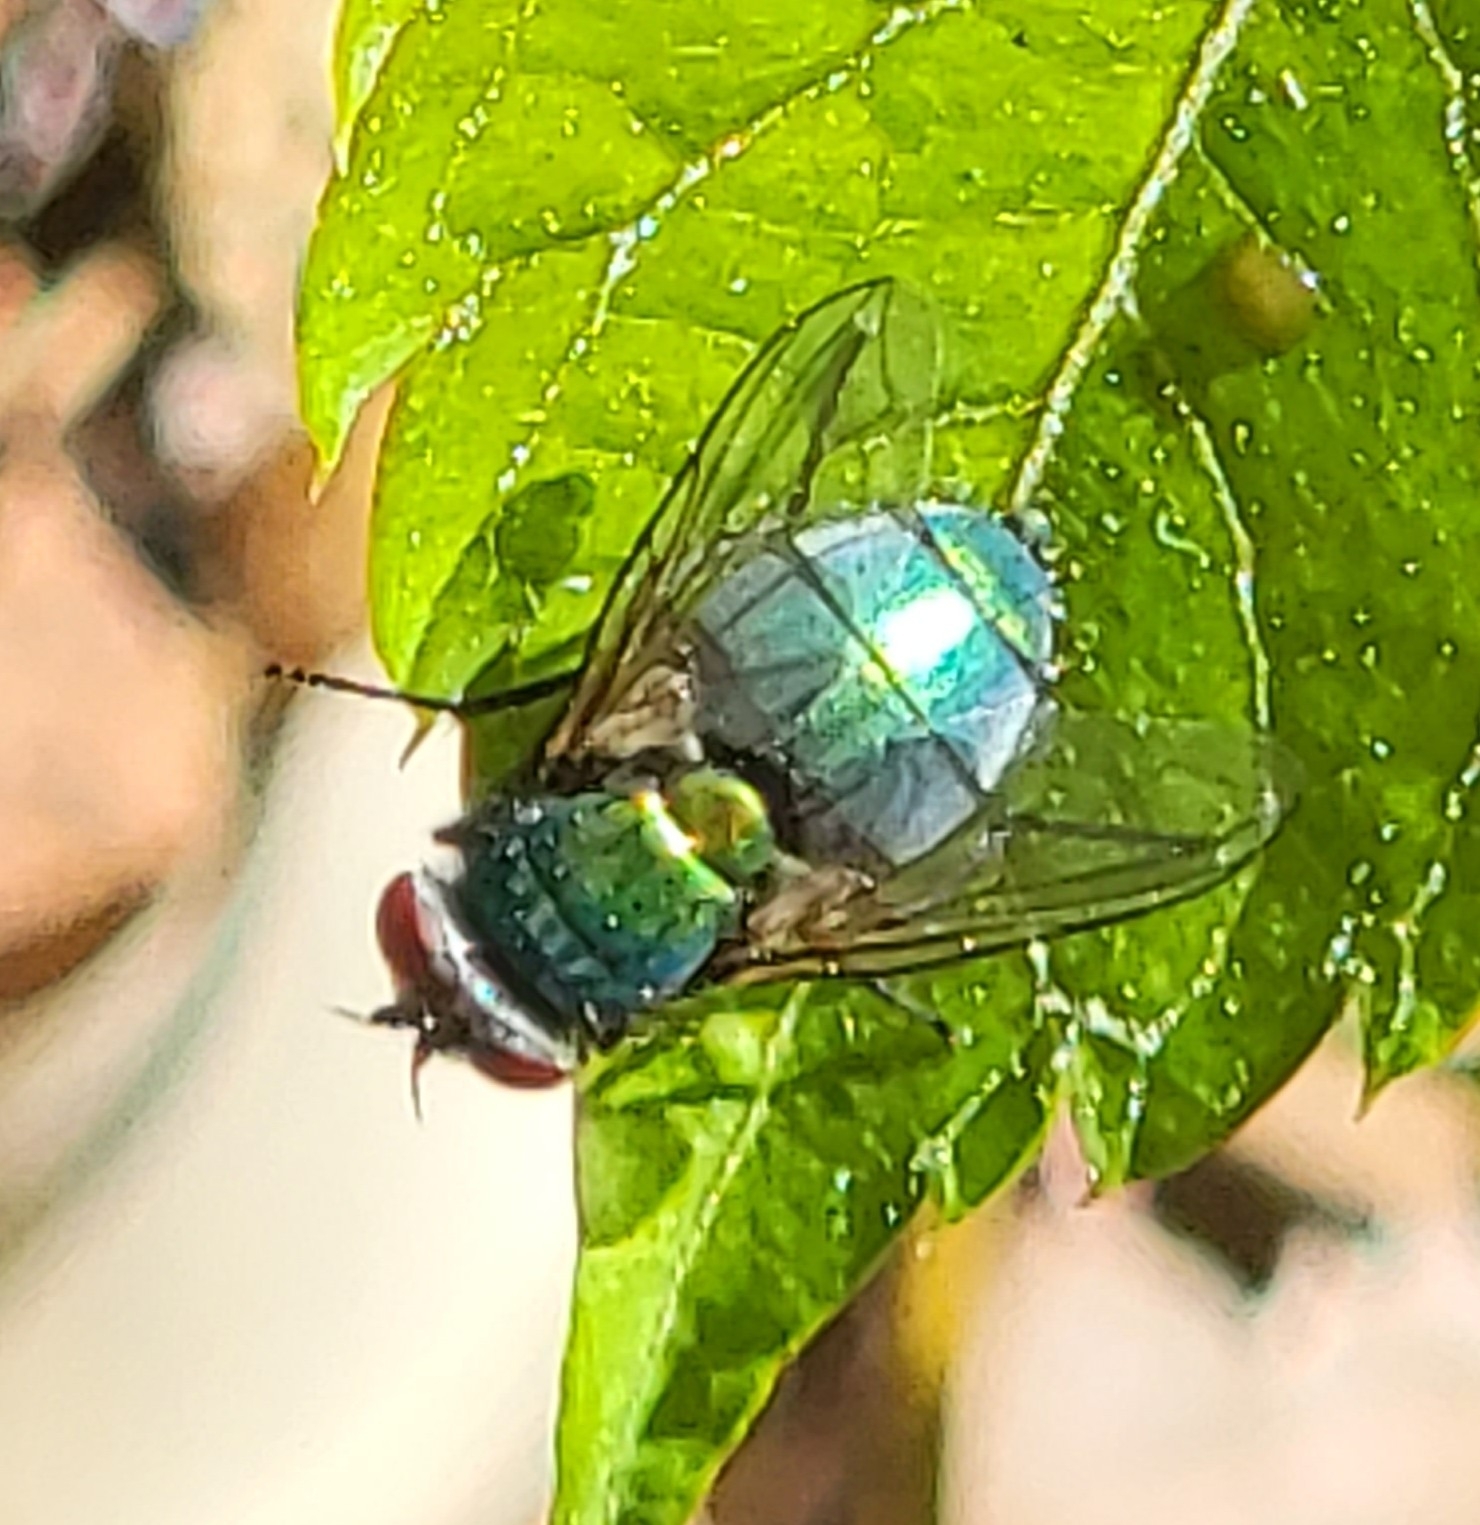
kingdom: Animalia
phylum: Arthropoda
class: Insecta
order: Diptera
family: Calliphoridae
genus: Lucilia
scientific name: Lucilia sericata
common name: Blow fly
